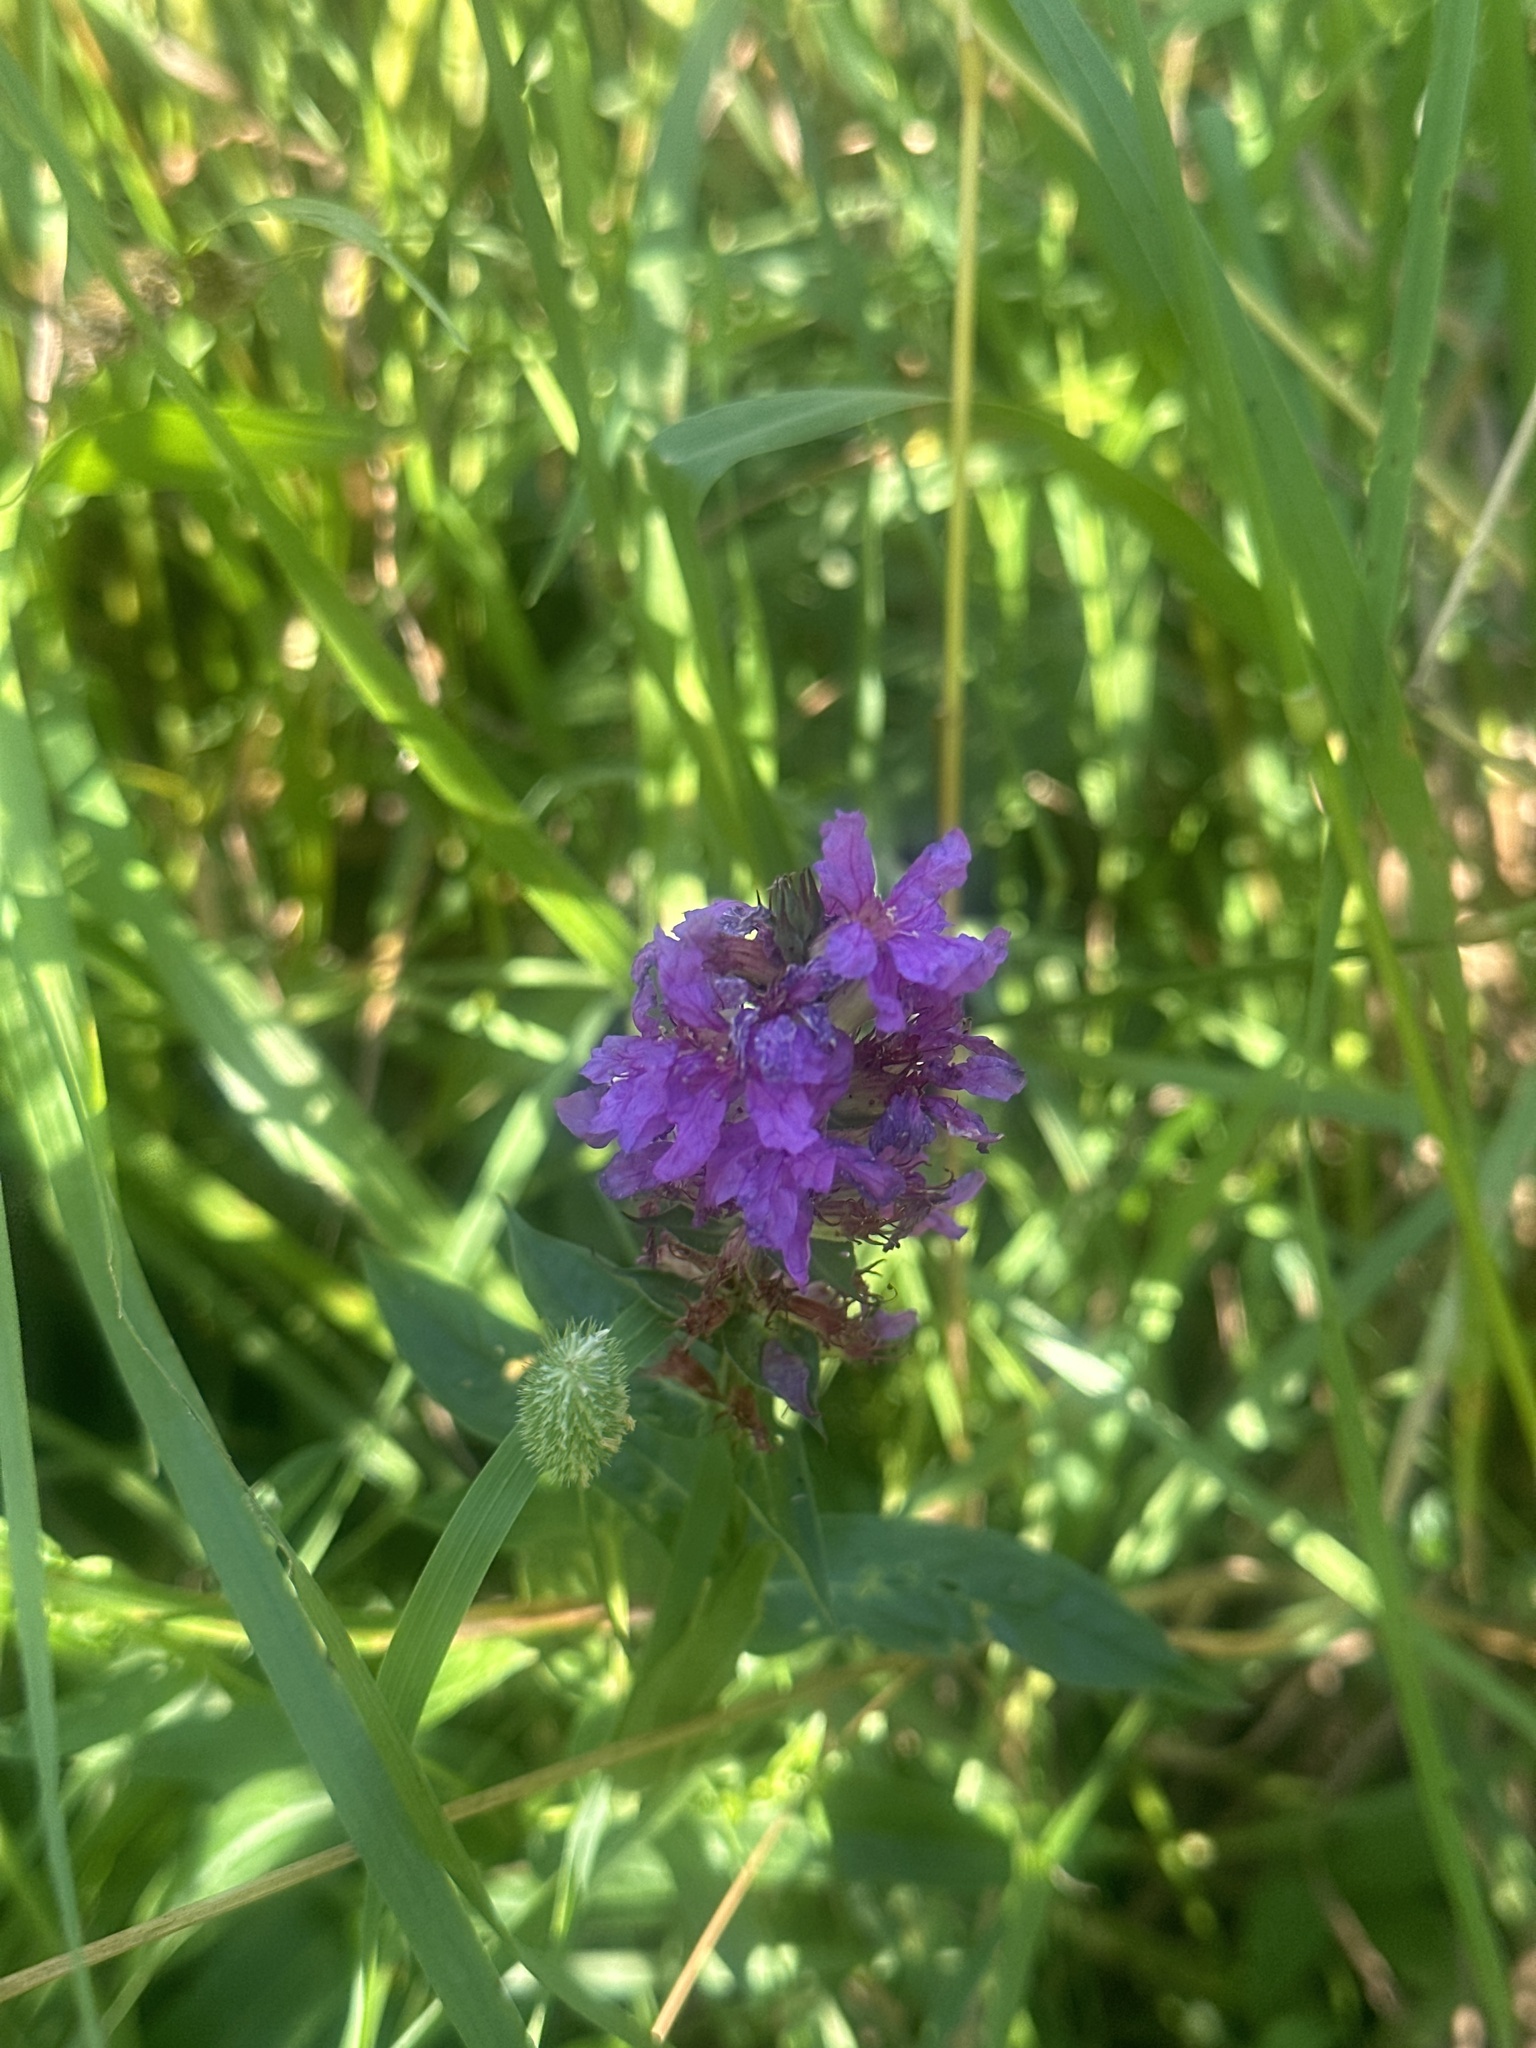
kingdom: Plantae
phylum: Tracheophyta
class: Magnoliopsida
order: Myrtales
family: Lythraceae
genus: Lythrum
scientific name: Lythrum salicaria
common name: Purple loosestrife
